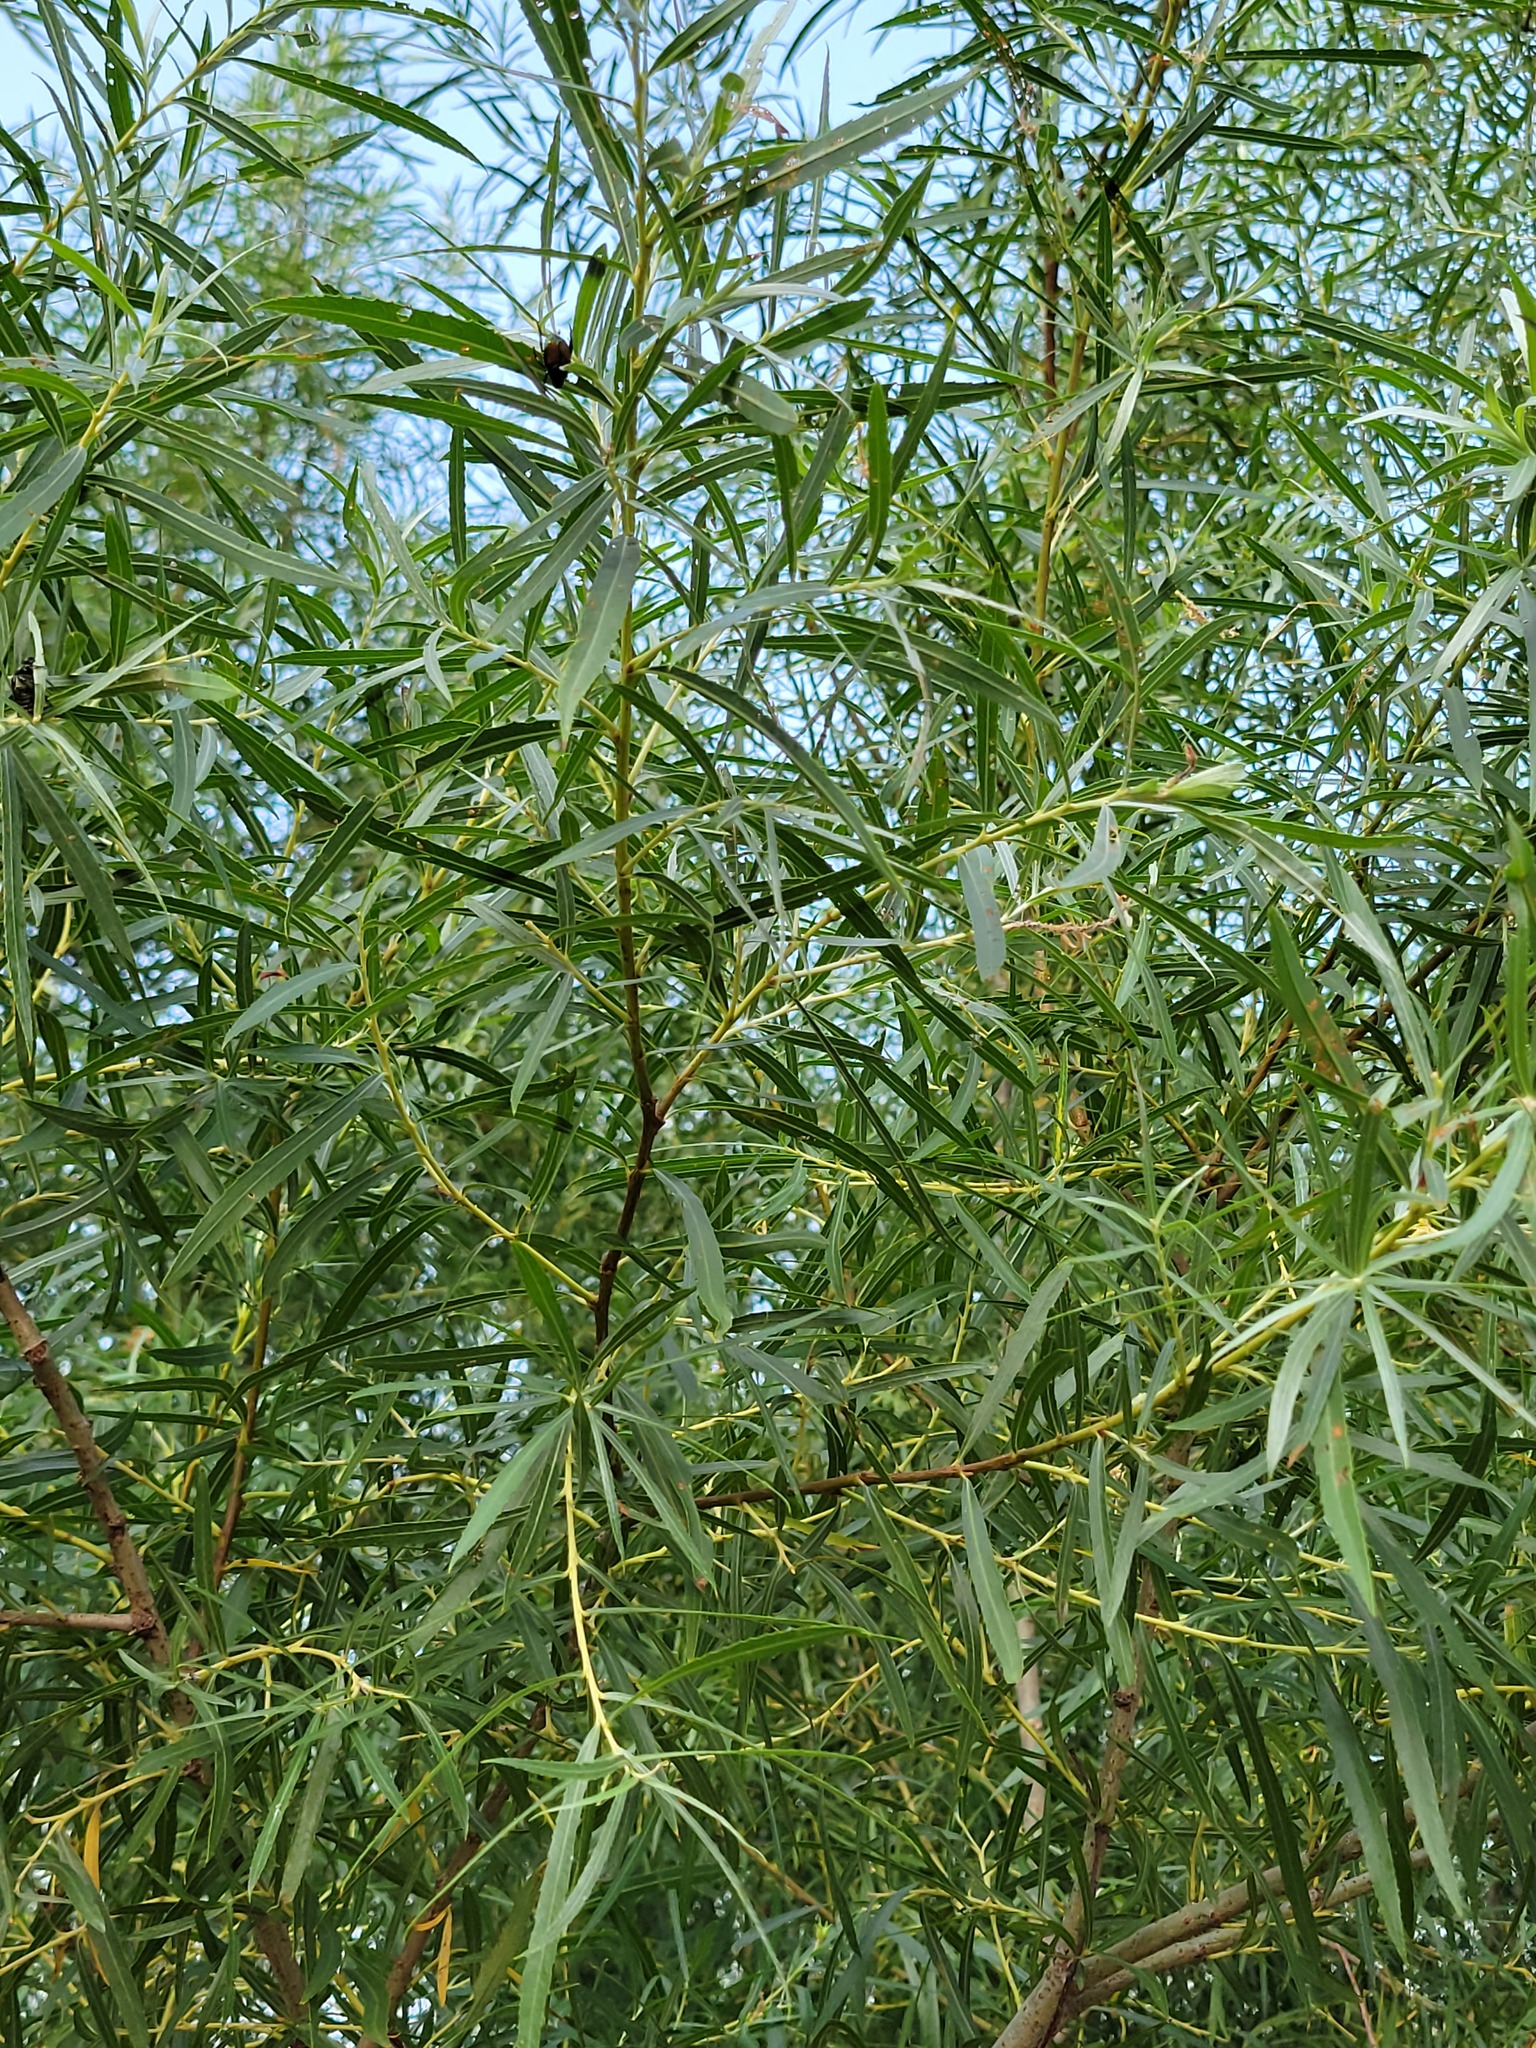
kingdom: Plantae
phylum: Tracheophyta
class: Magnoliopsida
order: Malpighiales
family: Salicaceae
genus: Salix
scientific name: Salix interior
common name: Sandbar willow
